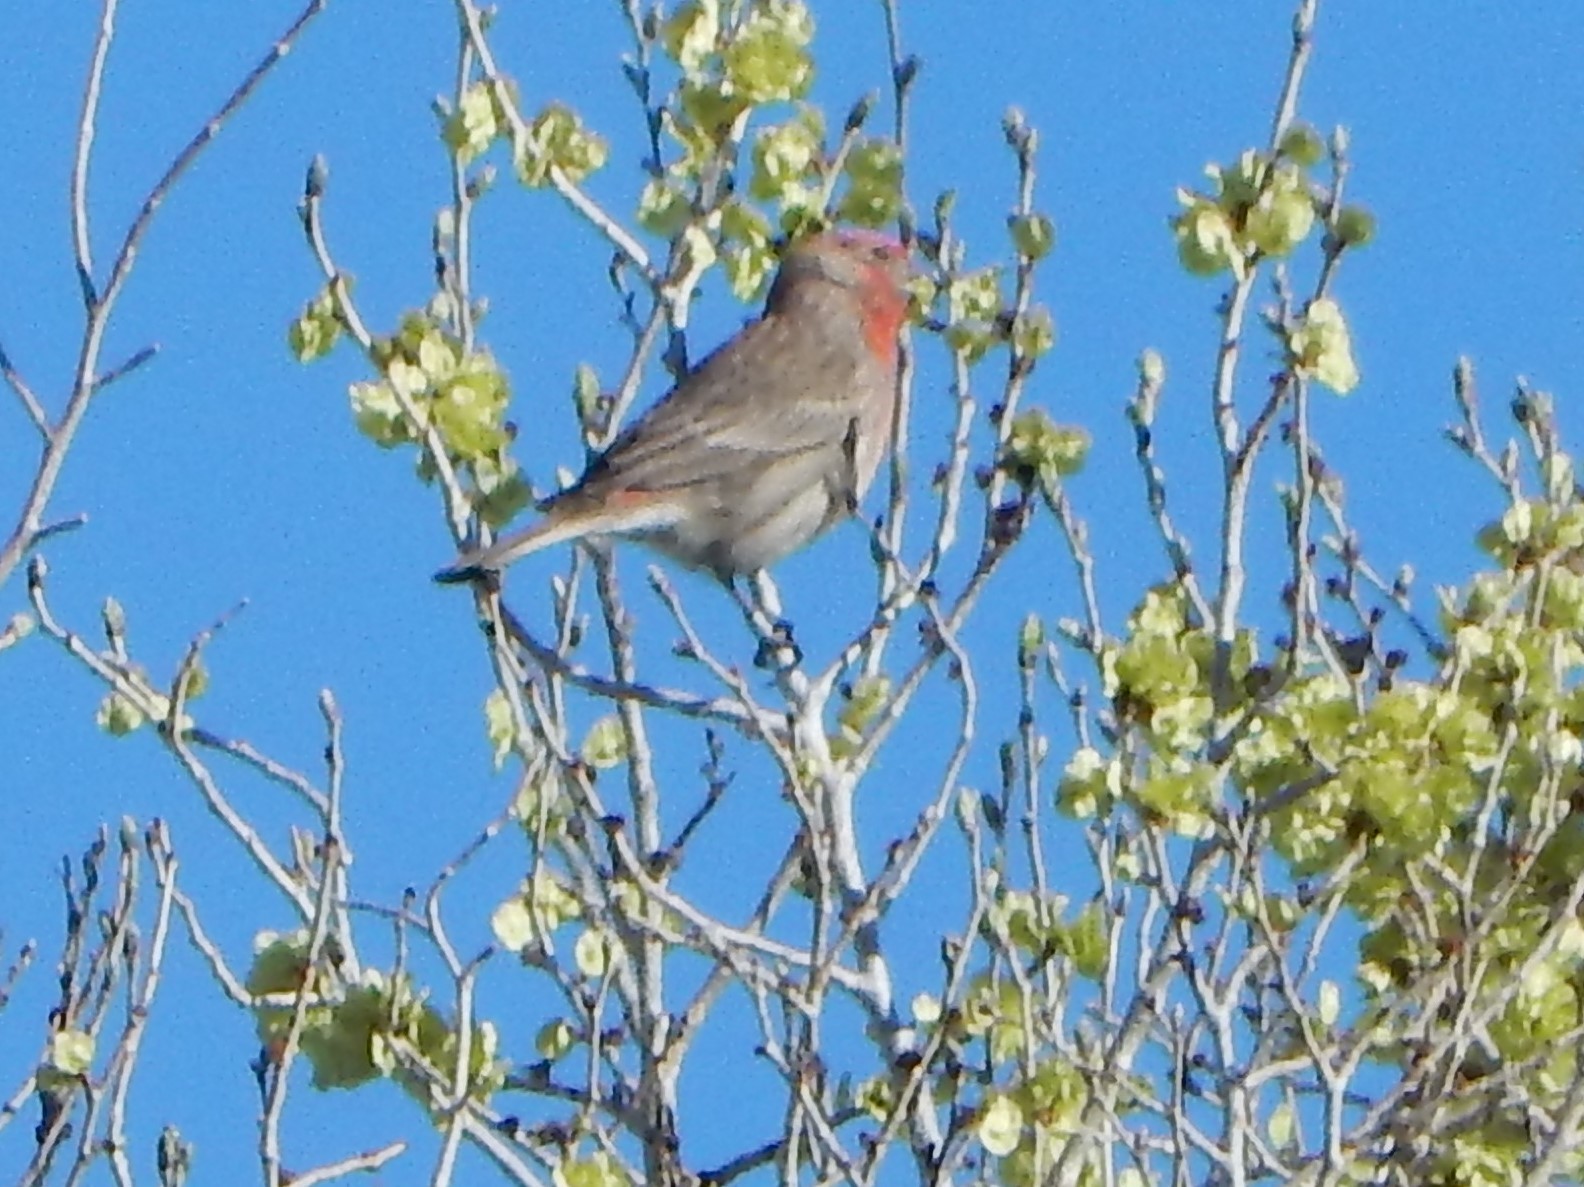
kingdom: Animalia
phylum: Chordata
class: Aves
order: Passeriformes
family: Fringillidae
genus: Haemorhous
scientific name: Haemorhous mexicanus
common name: House finch
